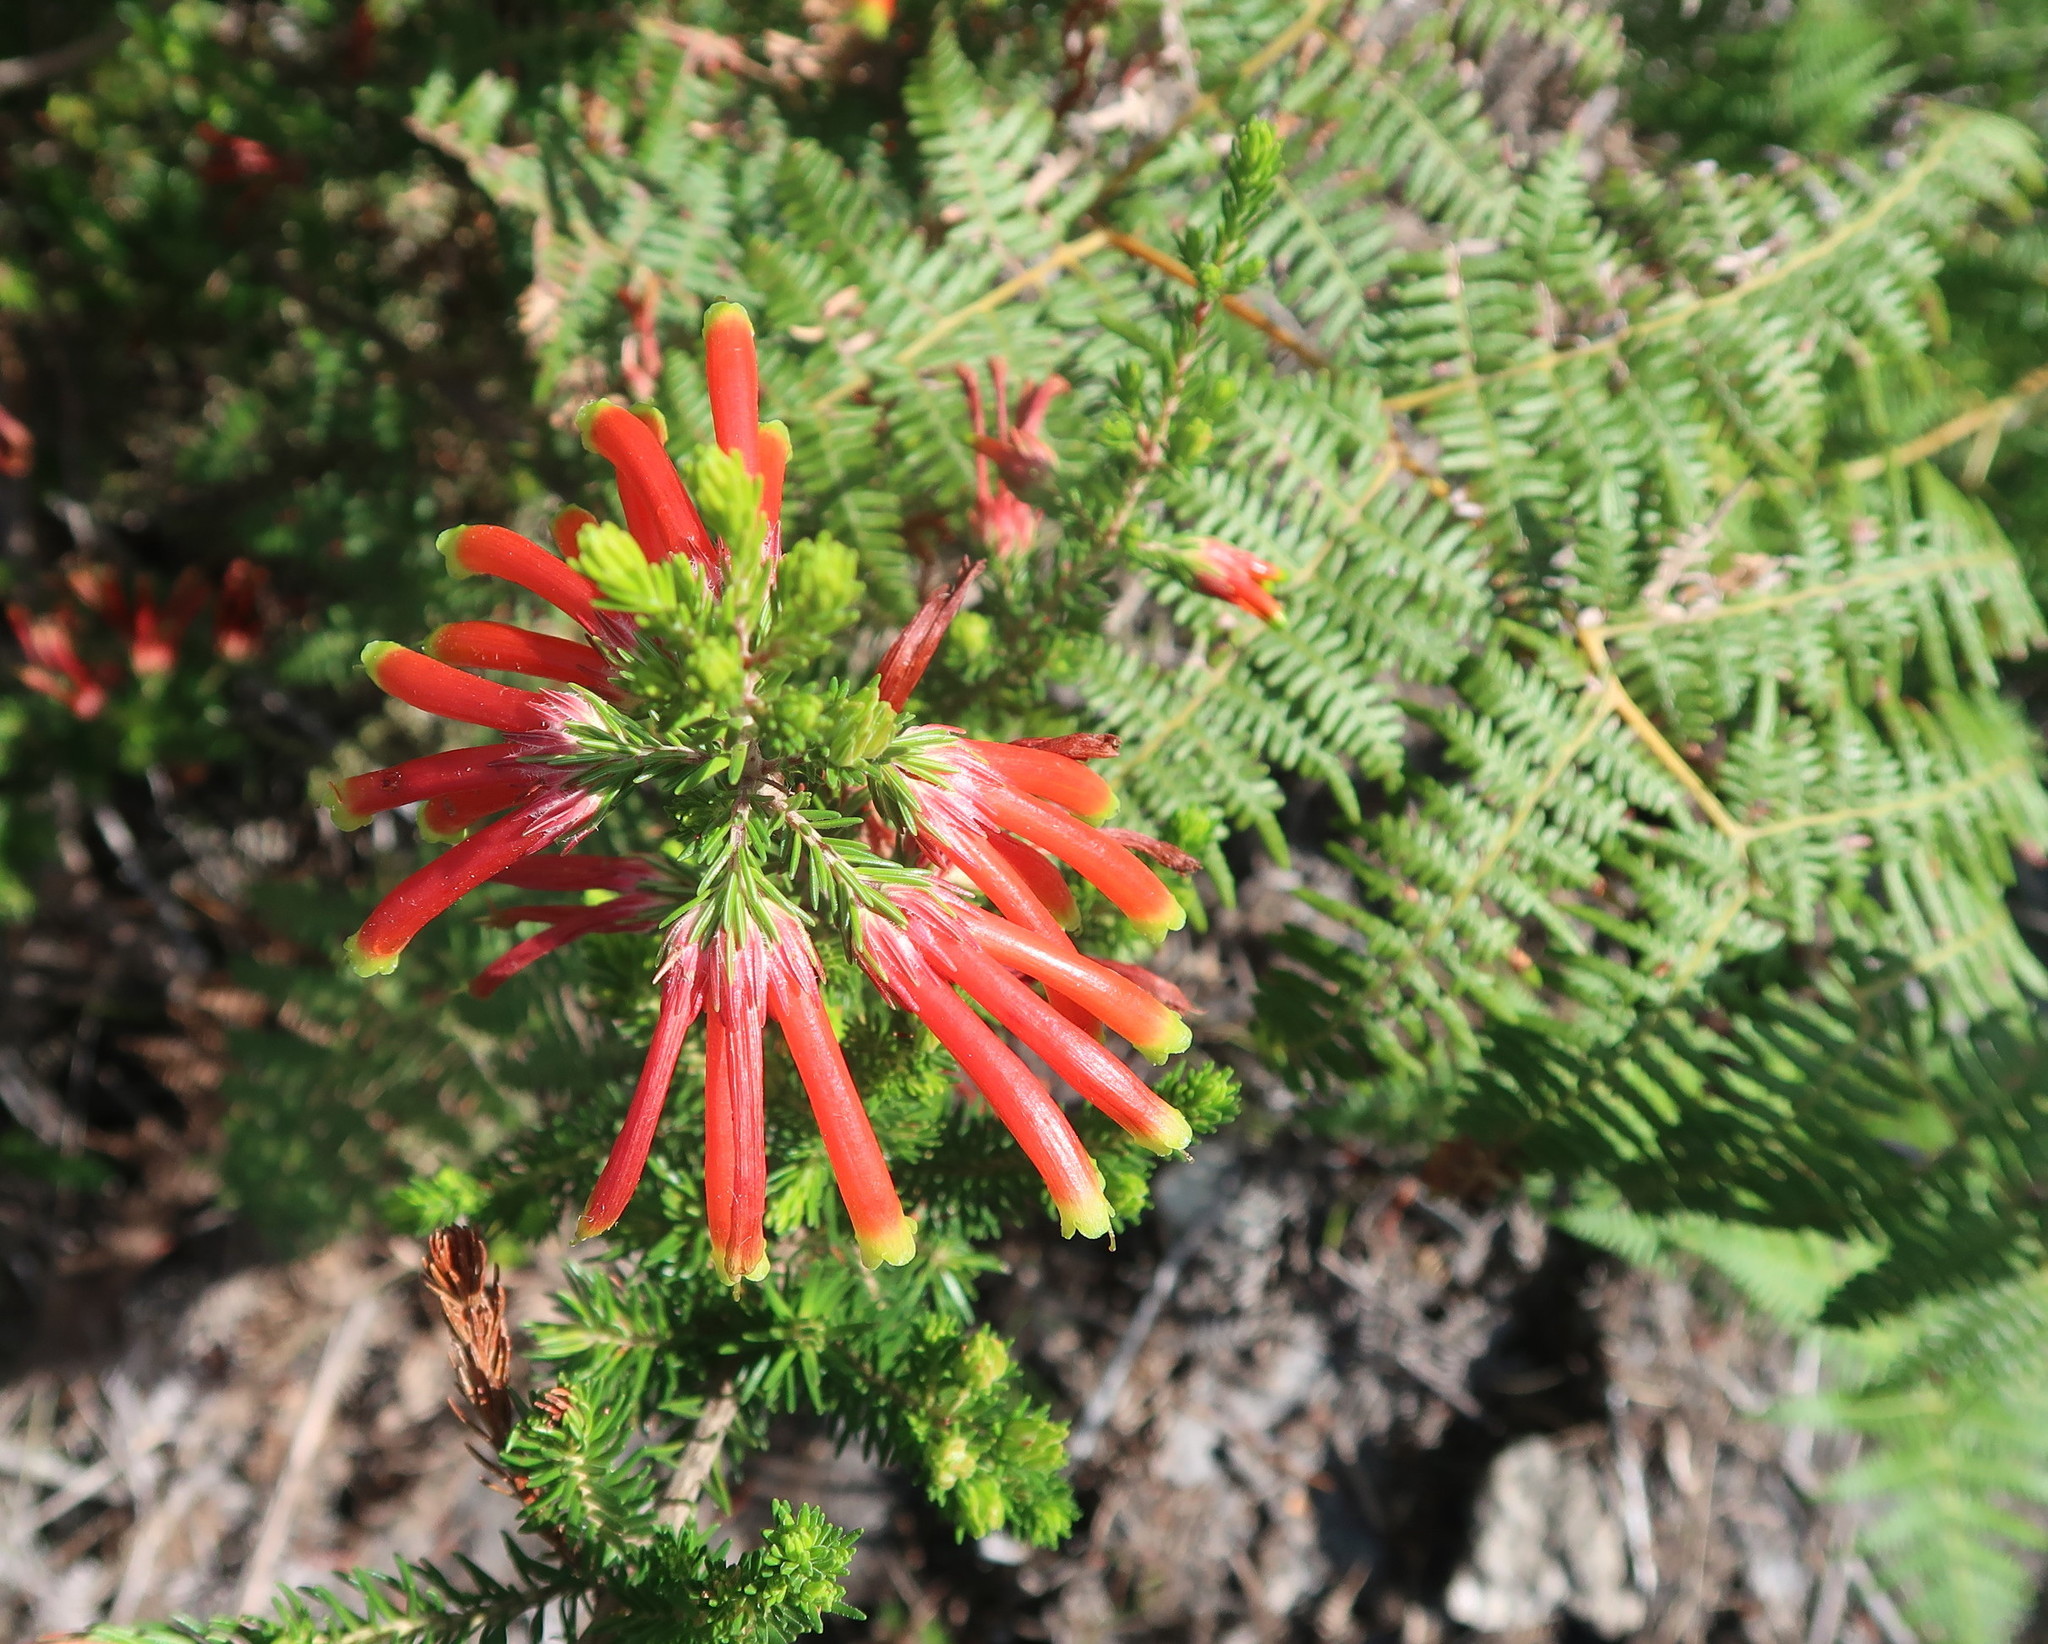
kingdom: Plantae
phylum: Tracheophyta
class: Magnoliopsida
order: Ericales
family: Ericaceae
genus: Erica
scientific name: Erica unicolor
